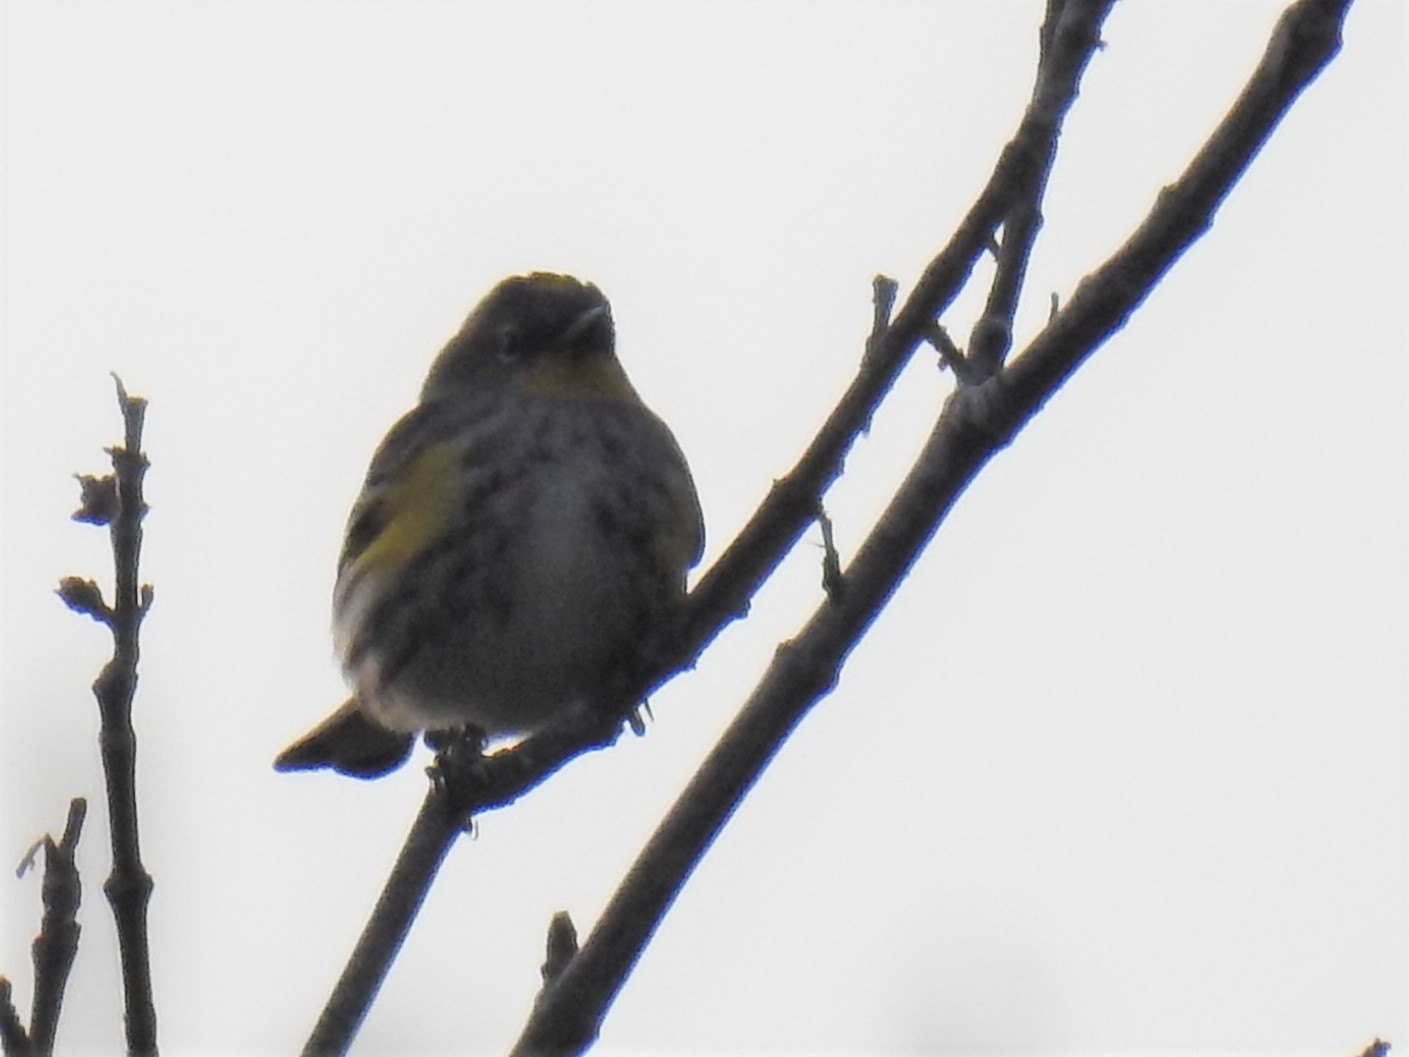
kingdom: Animalia
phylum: Chordata
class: Aves
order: Passeriformes
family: Parulidae
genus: Setophaga
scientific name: Setophaga coronata
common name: Myrtle warbler
